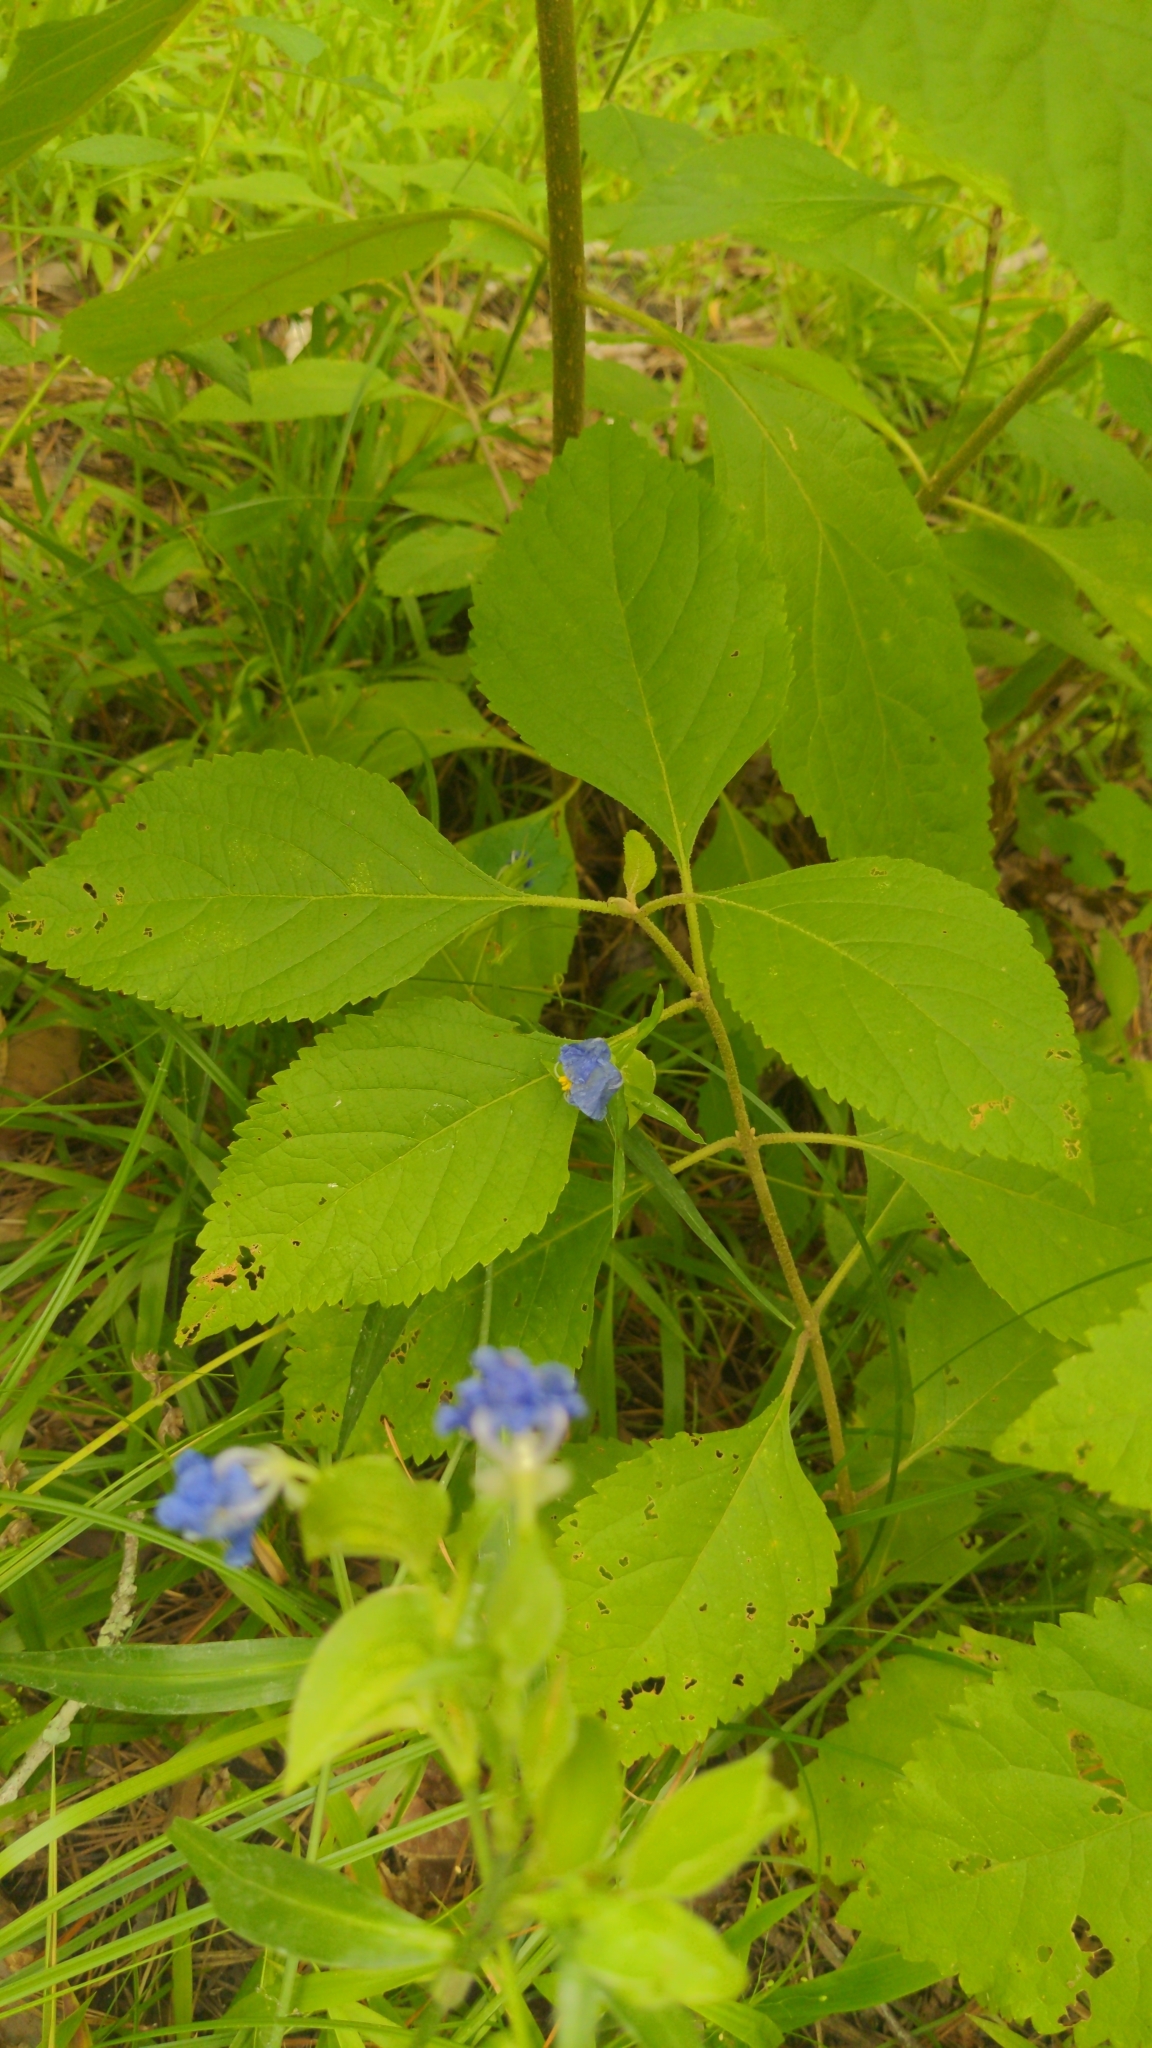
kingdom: Plantae
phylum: Tracheophyta
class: Magnoliopsida
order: Lamiales
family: Lamiaceae
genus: Callicarpa
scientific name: Callicarpa americana
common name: American beautyberry
